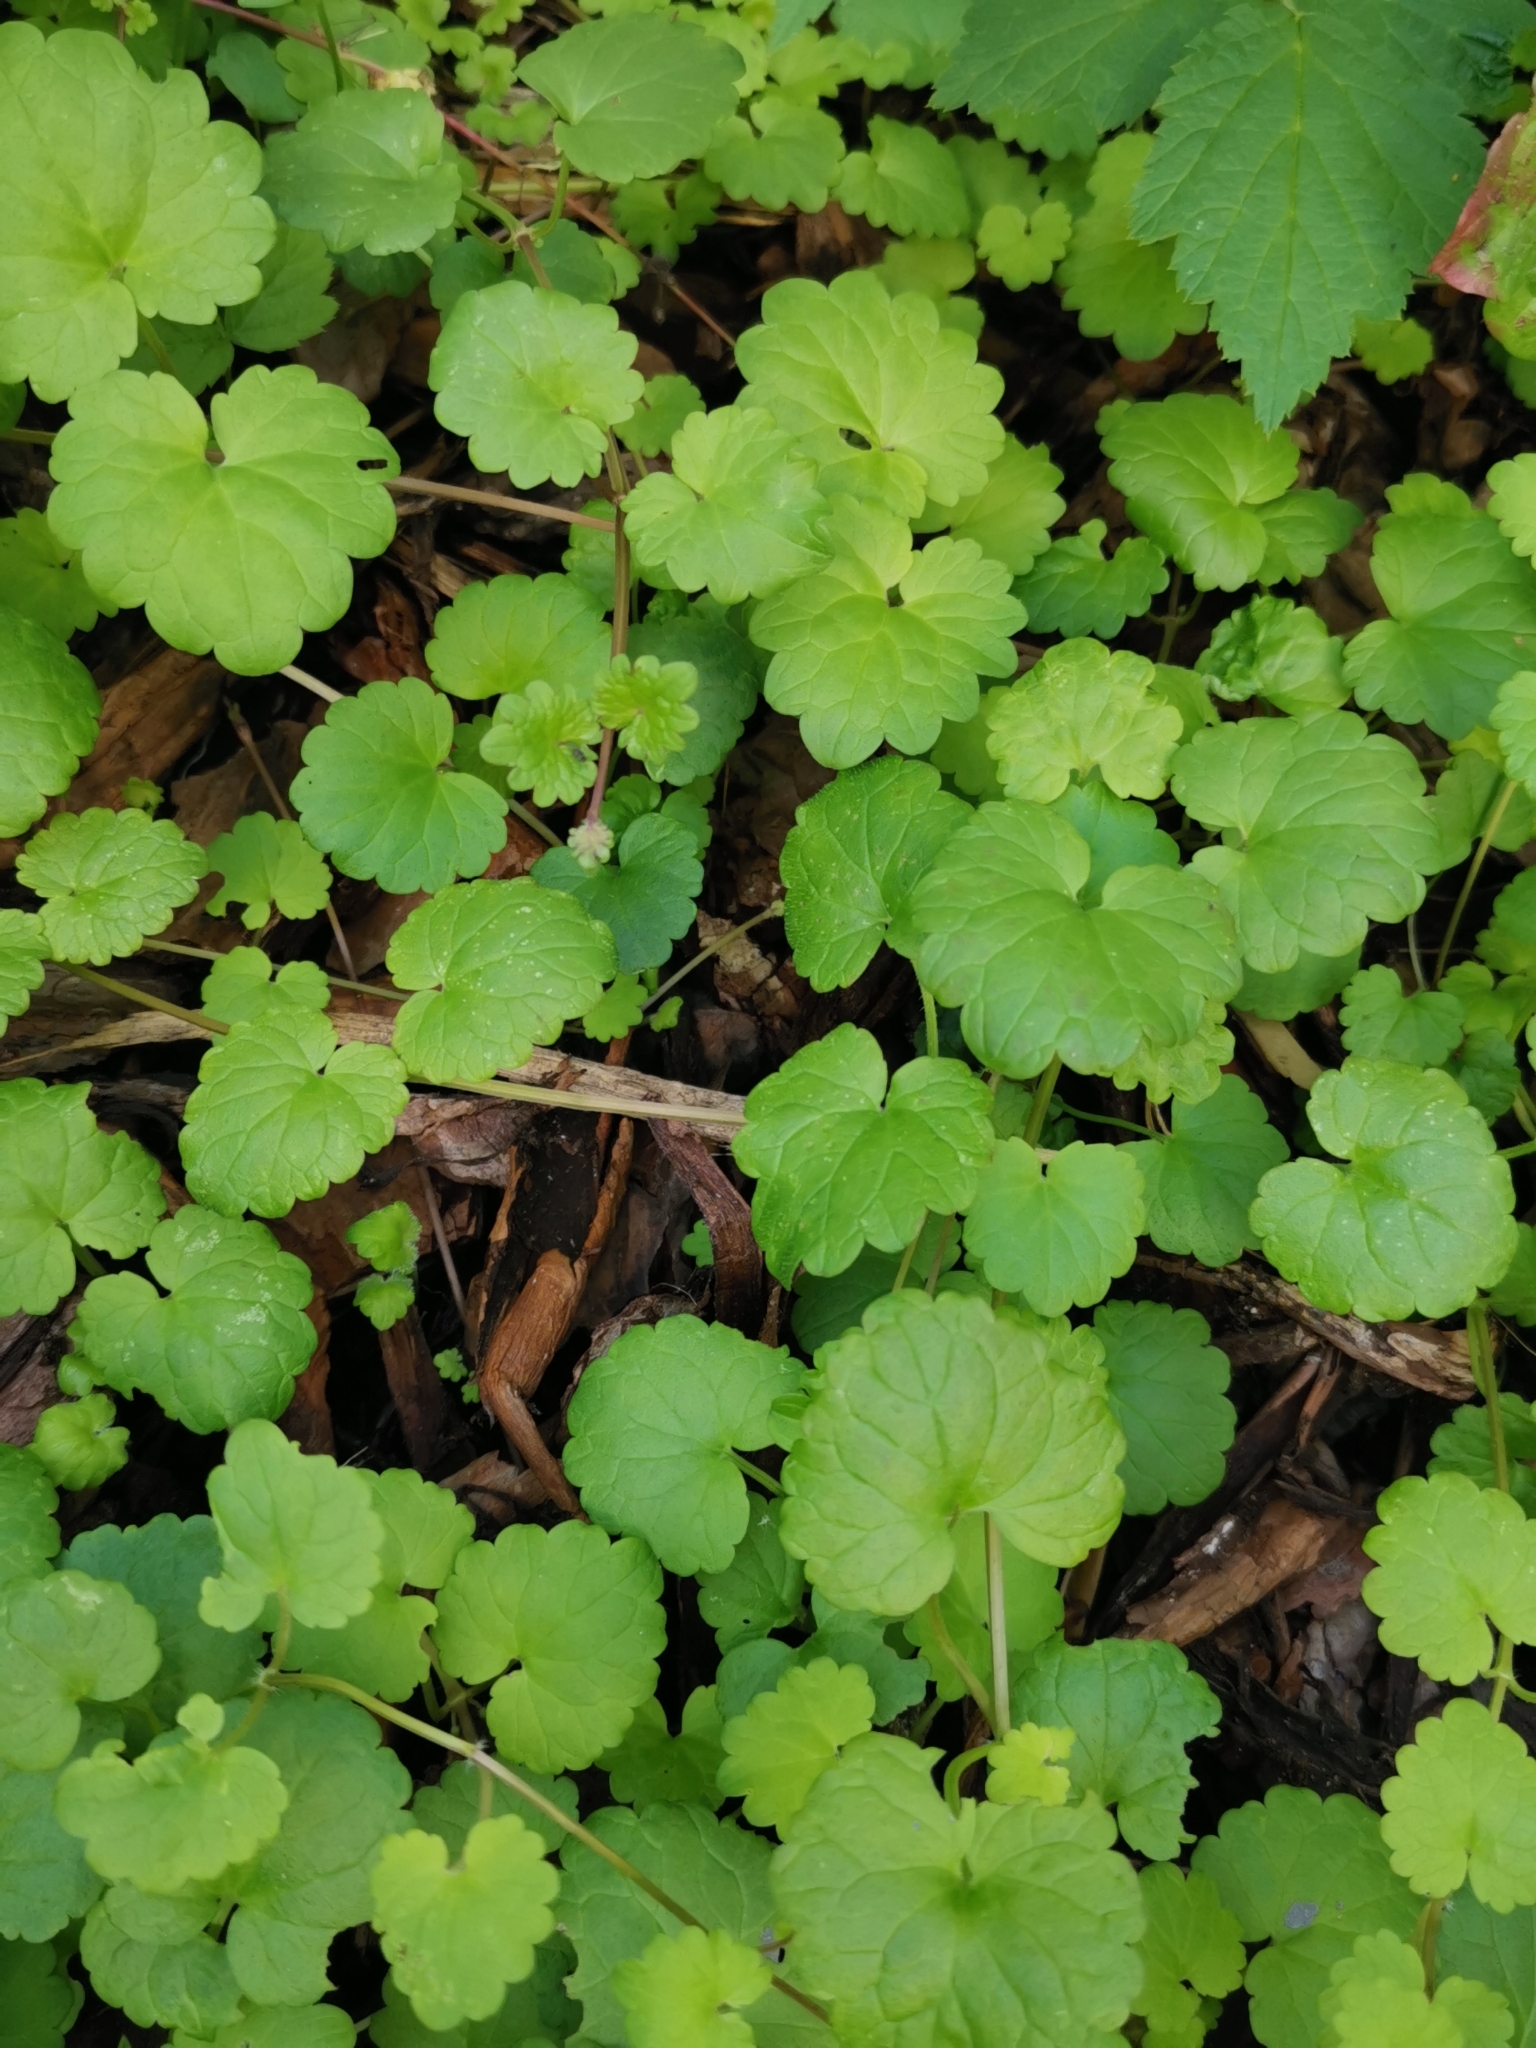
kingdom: Plantae
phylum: Tracheophyta
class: Magnoliopsida
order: Lamiales
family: Lamiaceae
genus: Glechoma
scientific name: Glechoma hederacea
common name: Ground ivy
